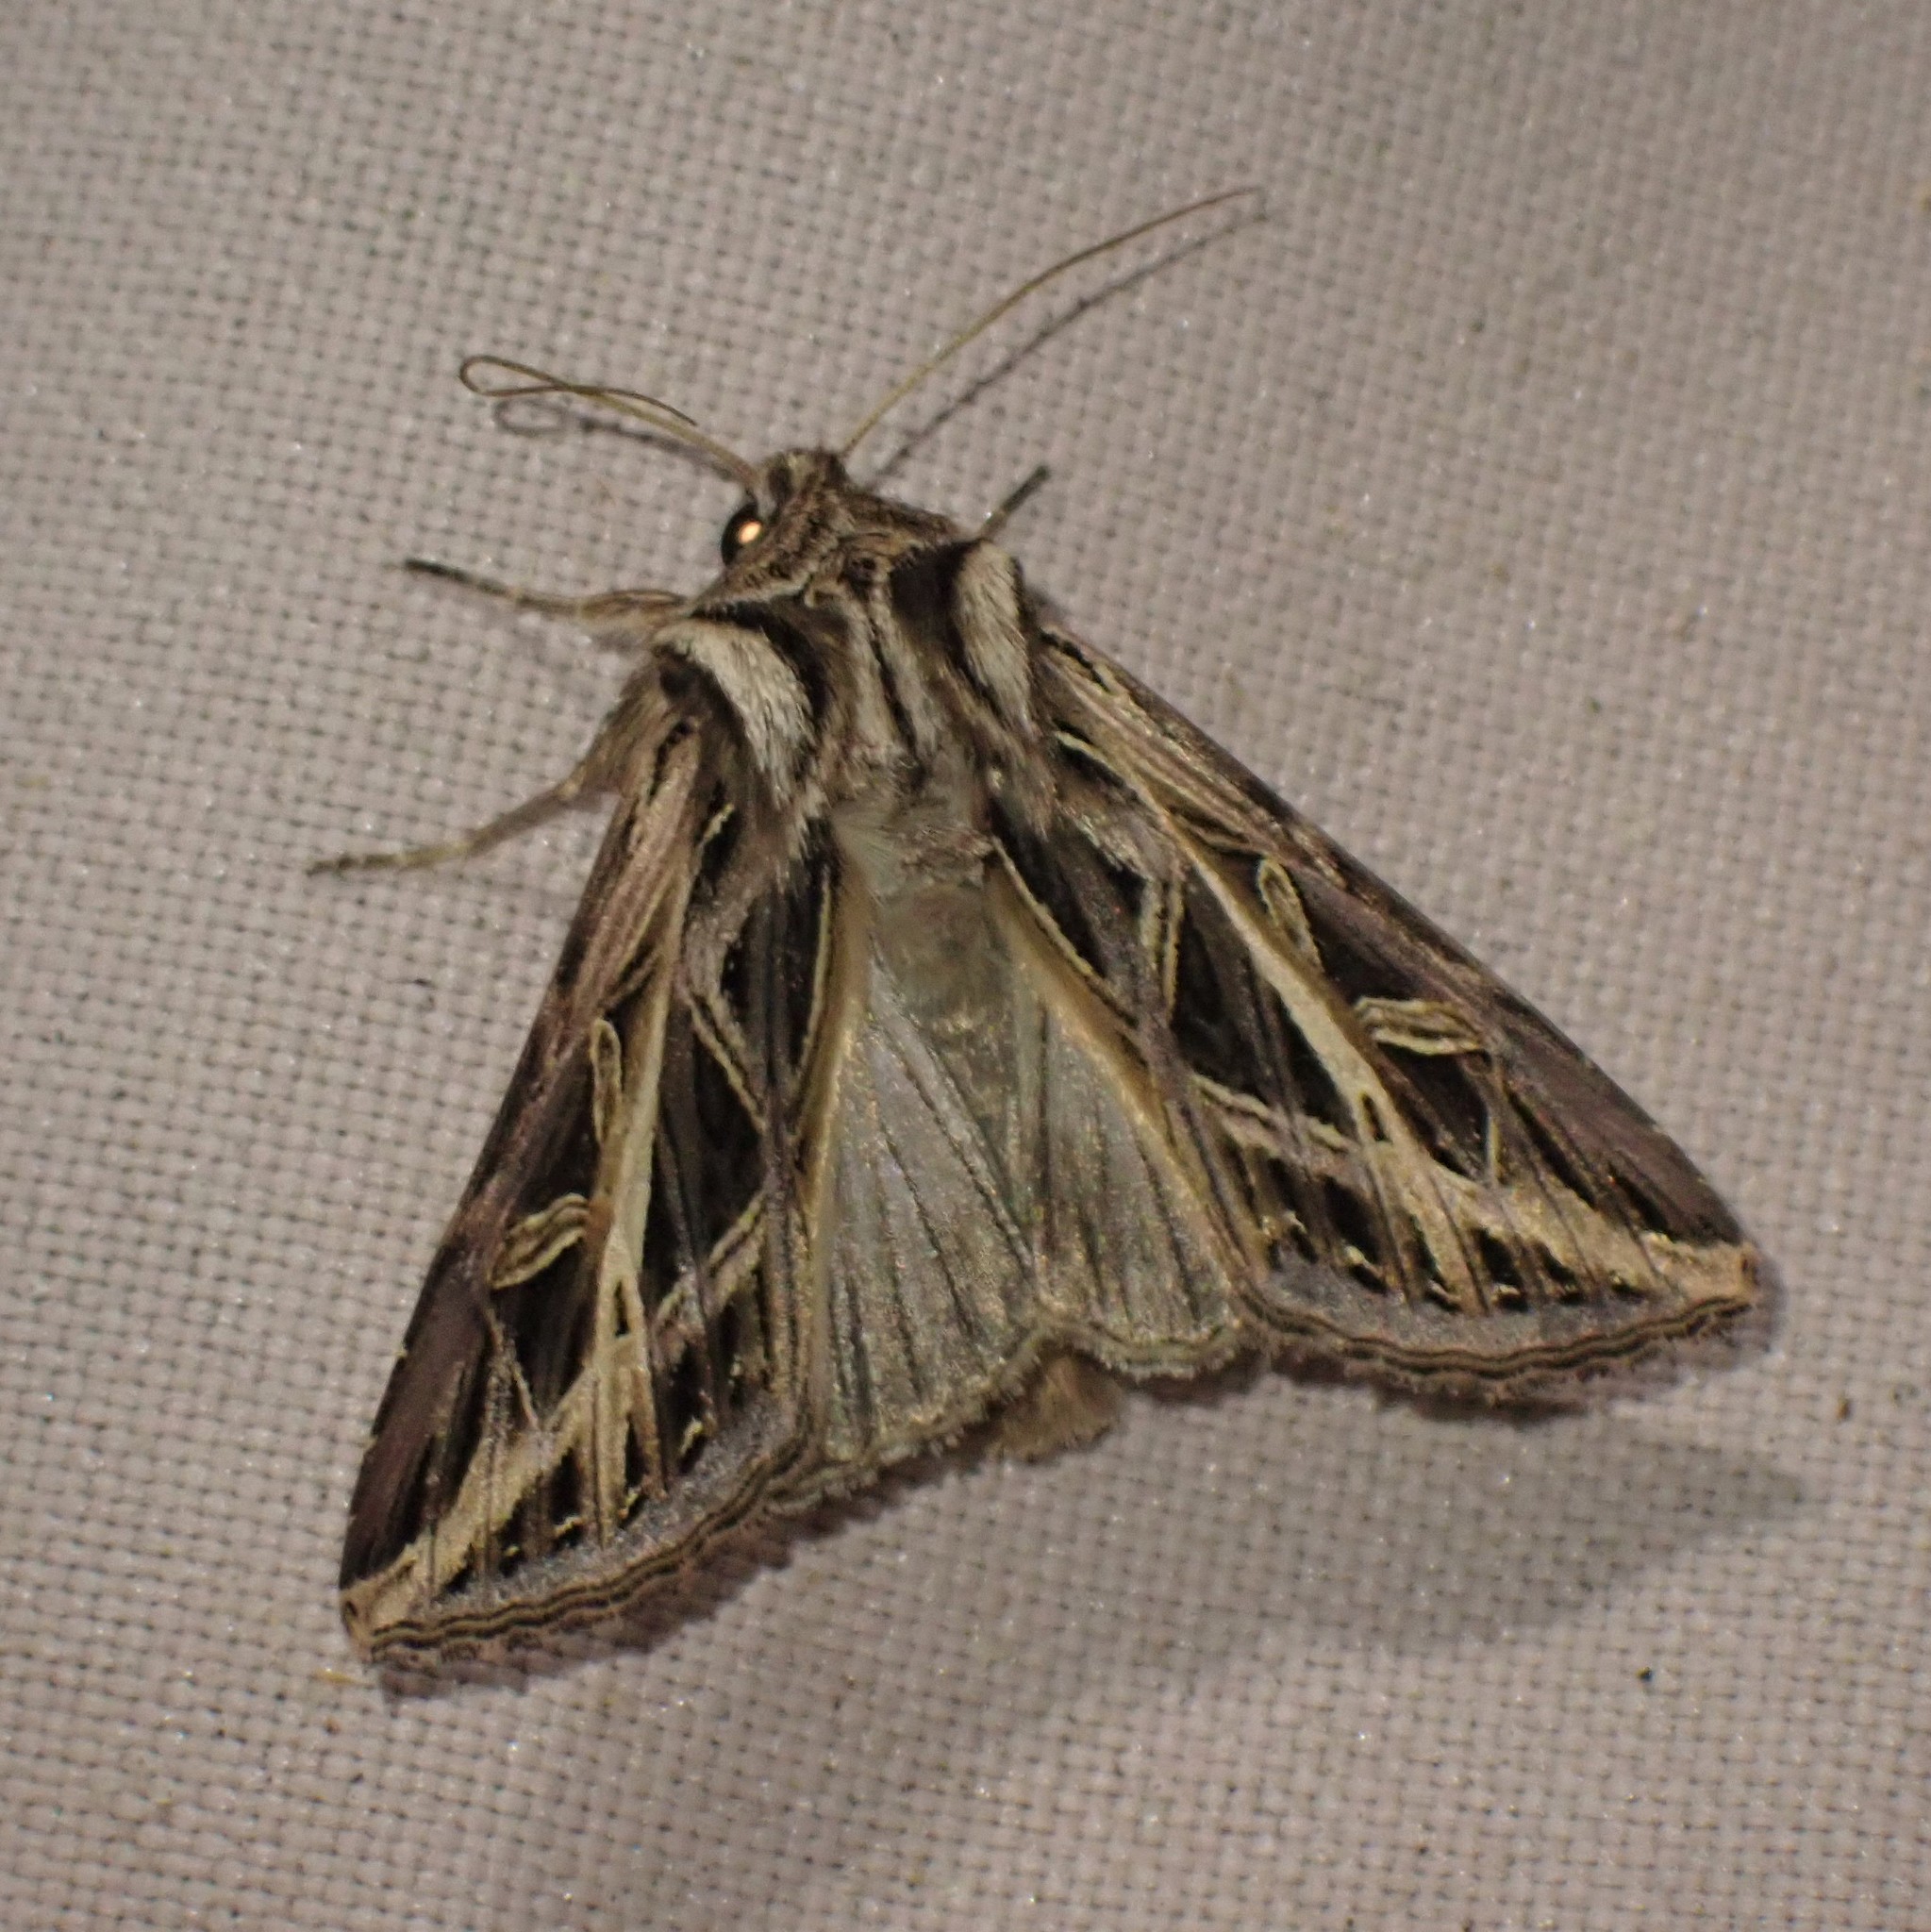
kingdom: Animalia
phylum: Arthropoda
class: Insecta
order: Lepidoptera
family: Noctuidae
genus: Dargida
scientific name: Dargida procinctus
